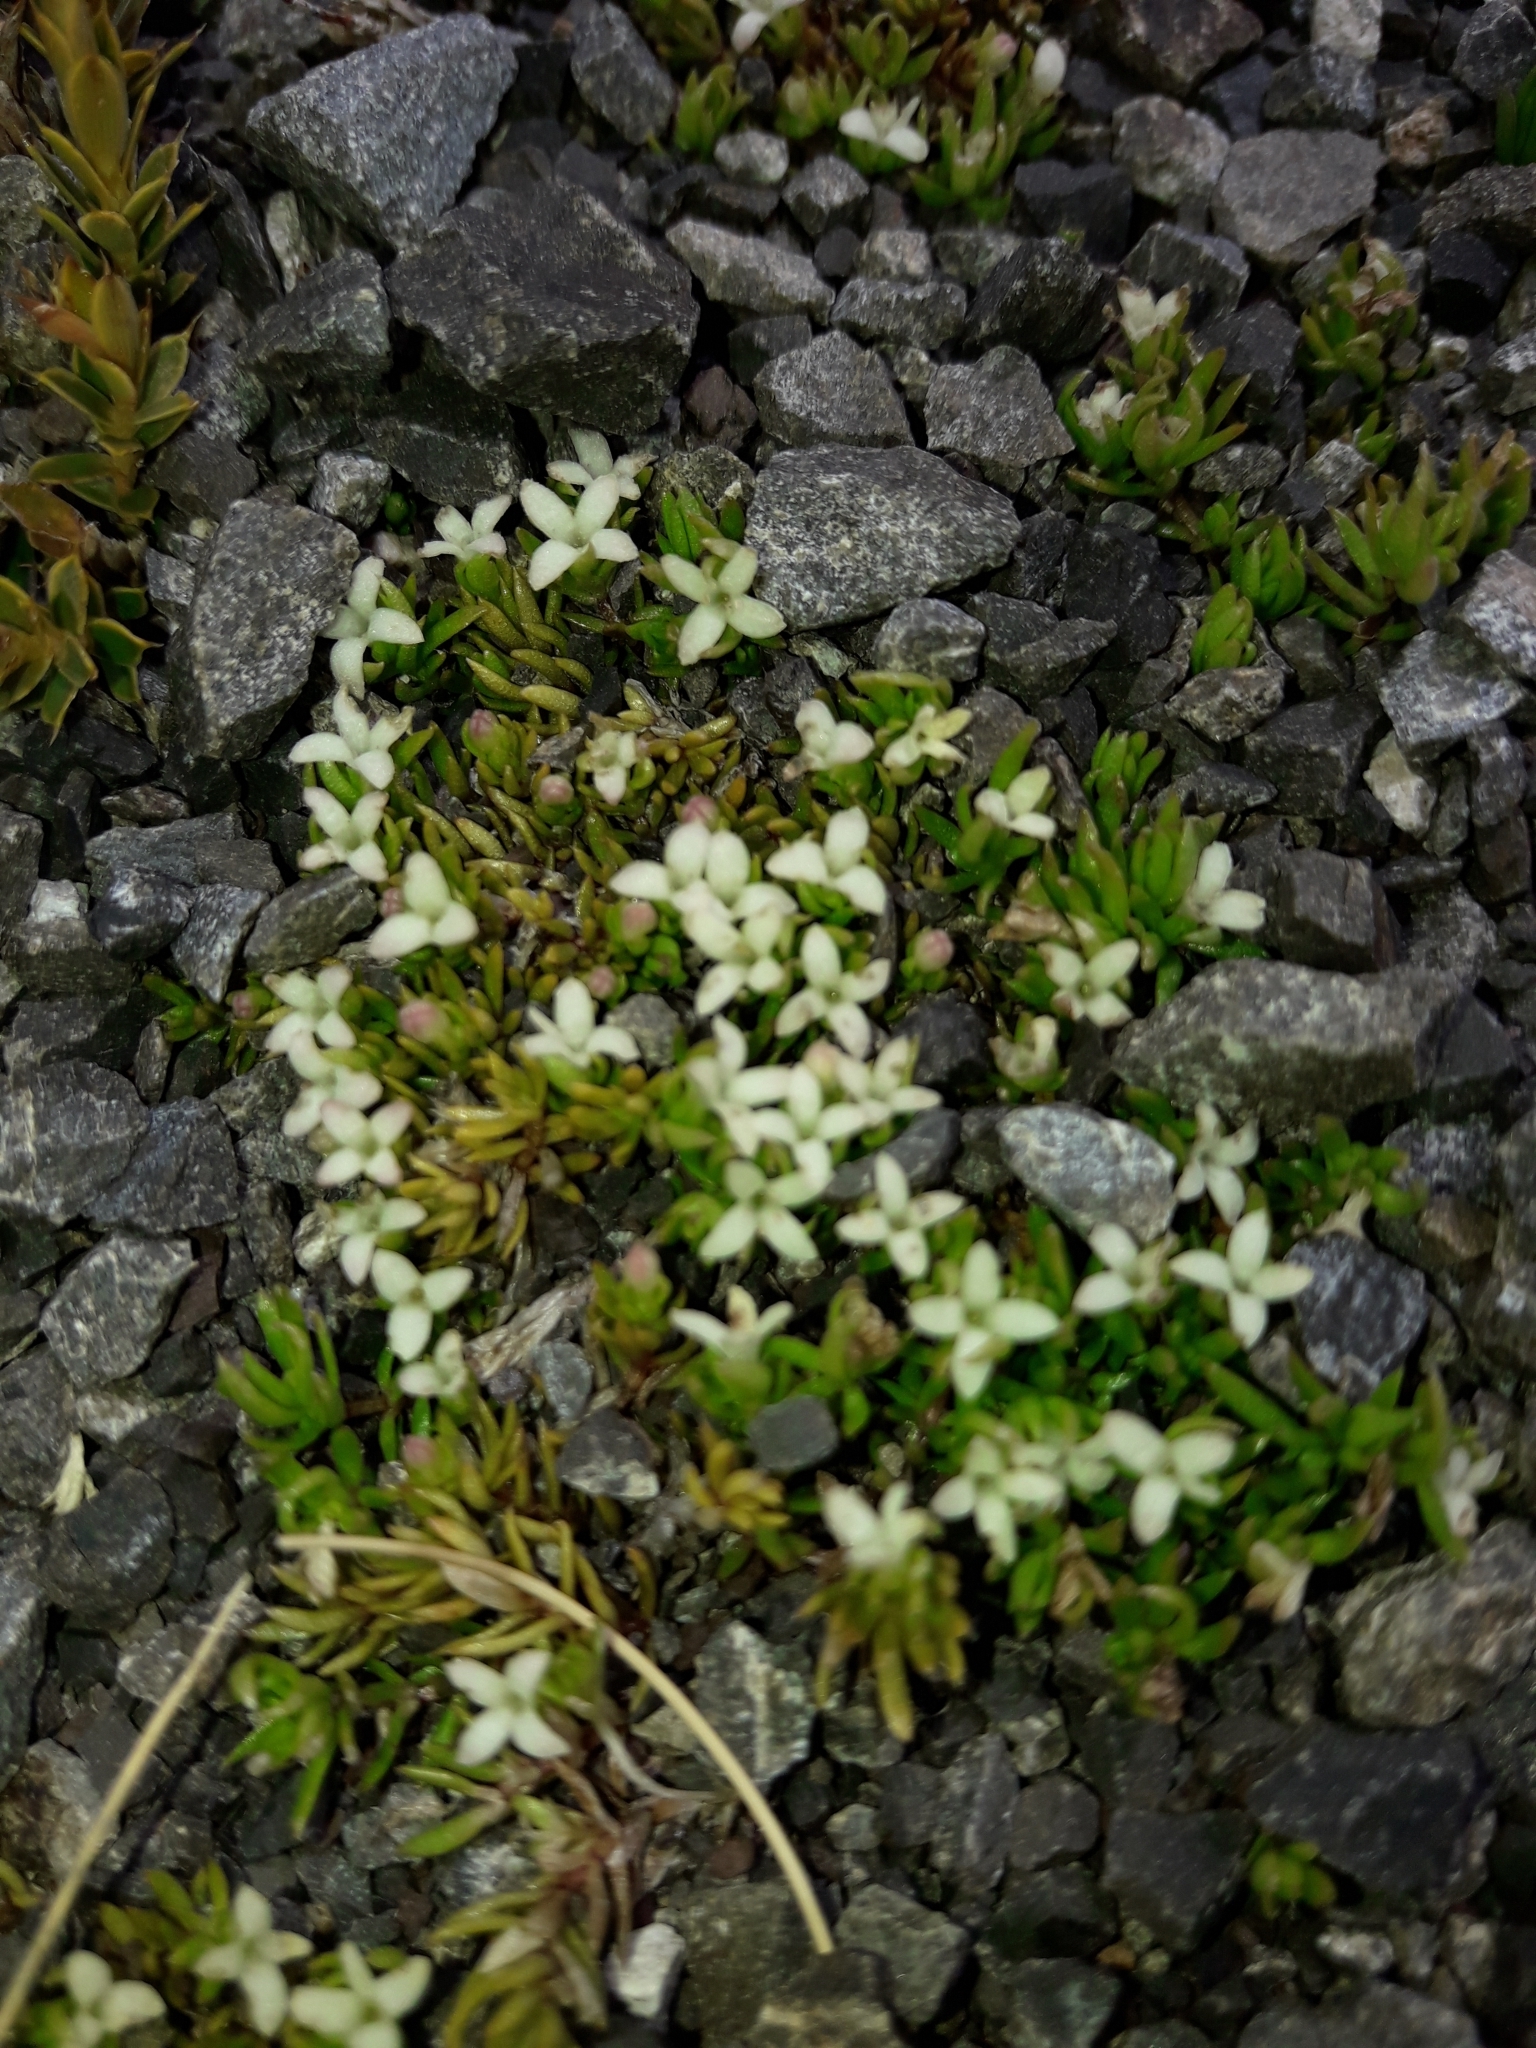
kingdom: Plantae
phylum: Tracheophyta
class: Magnoliopsida
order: Gentianales
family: Rubiaceae
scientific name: Rubiaceae
